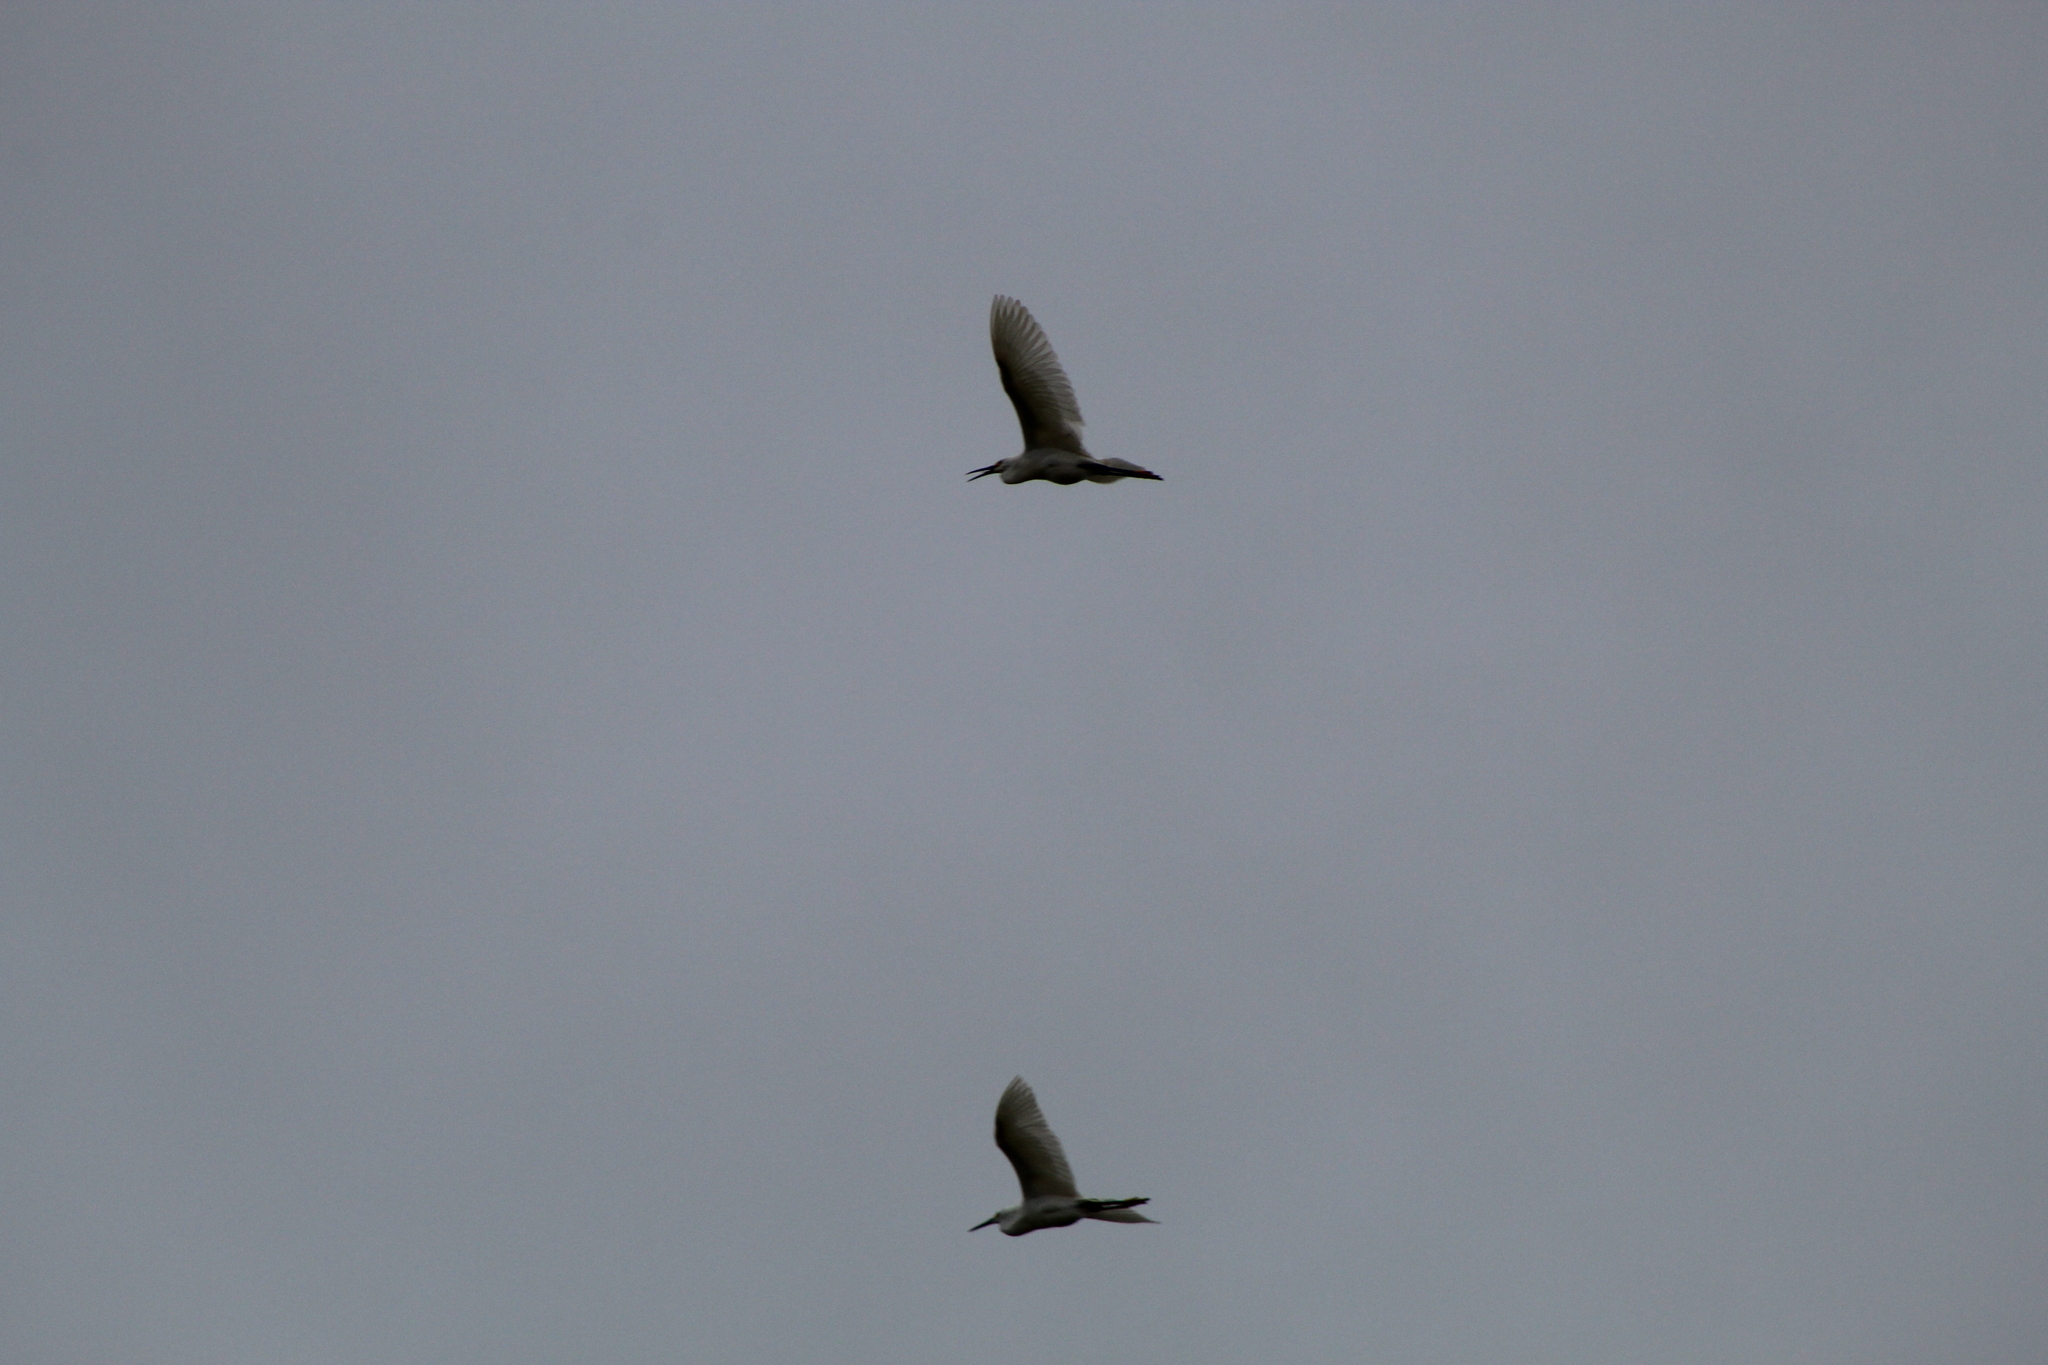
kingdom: Animalia
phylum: Chordata
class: Aves
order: Pelecaniformes
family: Ardeidae
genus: Ardea
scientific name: Ardea alba
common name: Great egret
